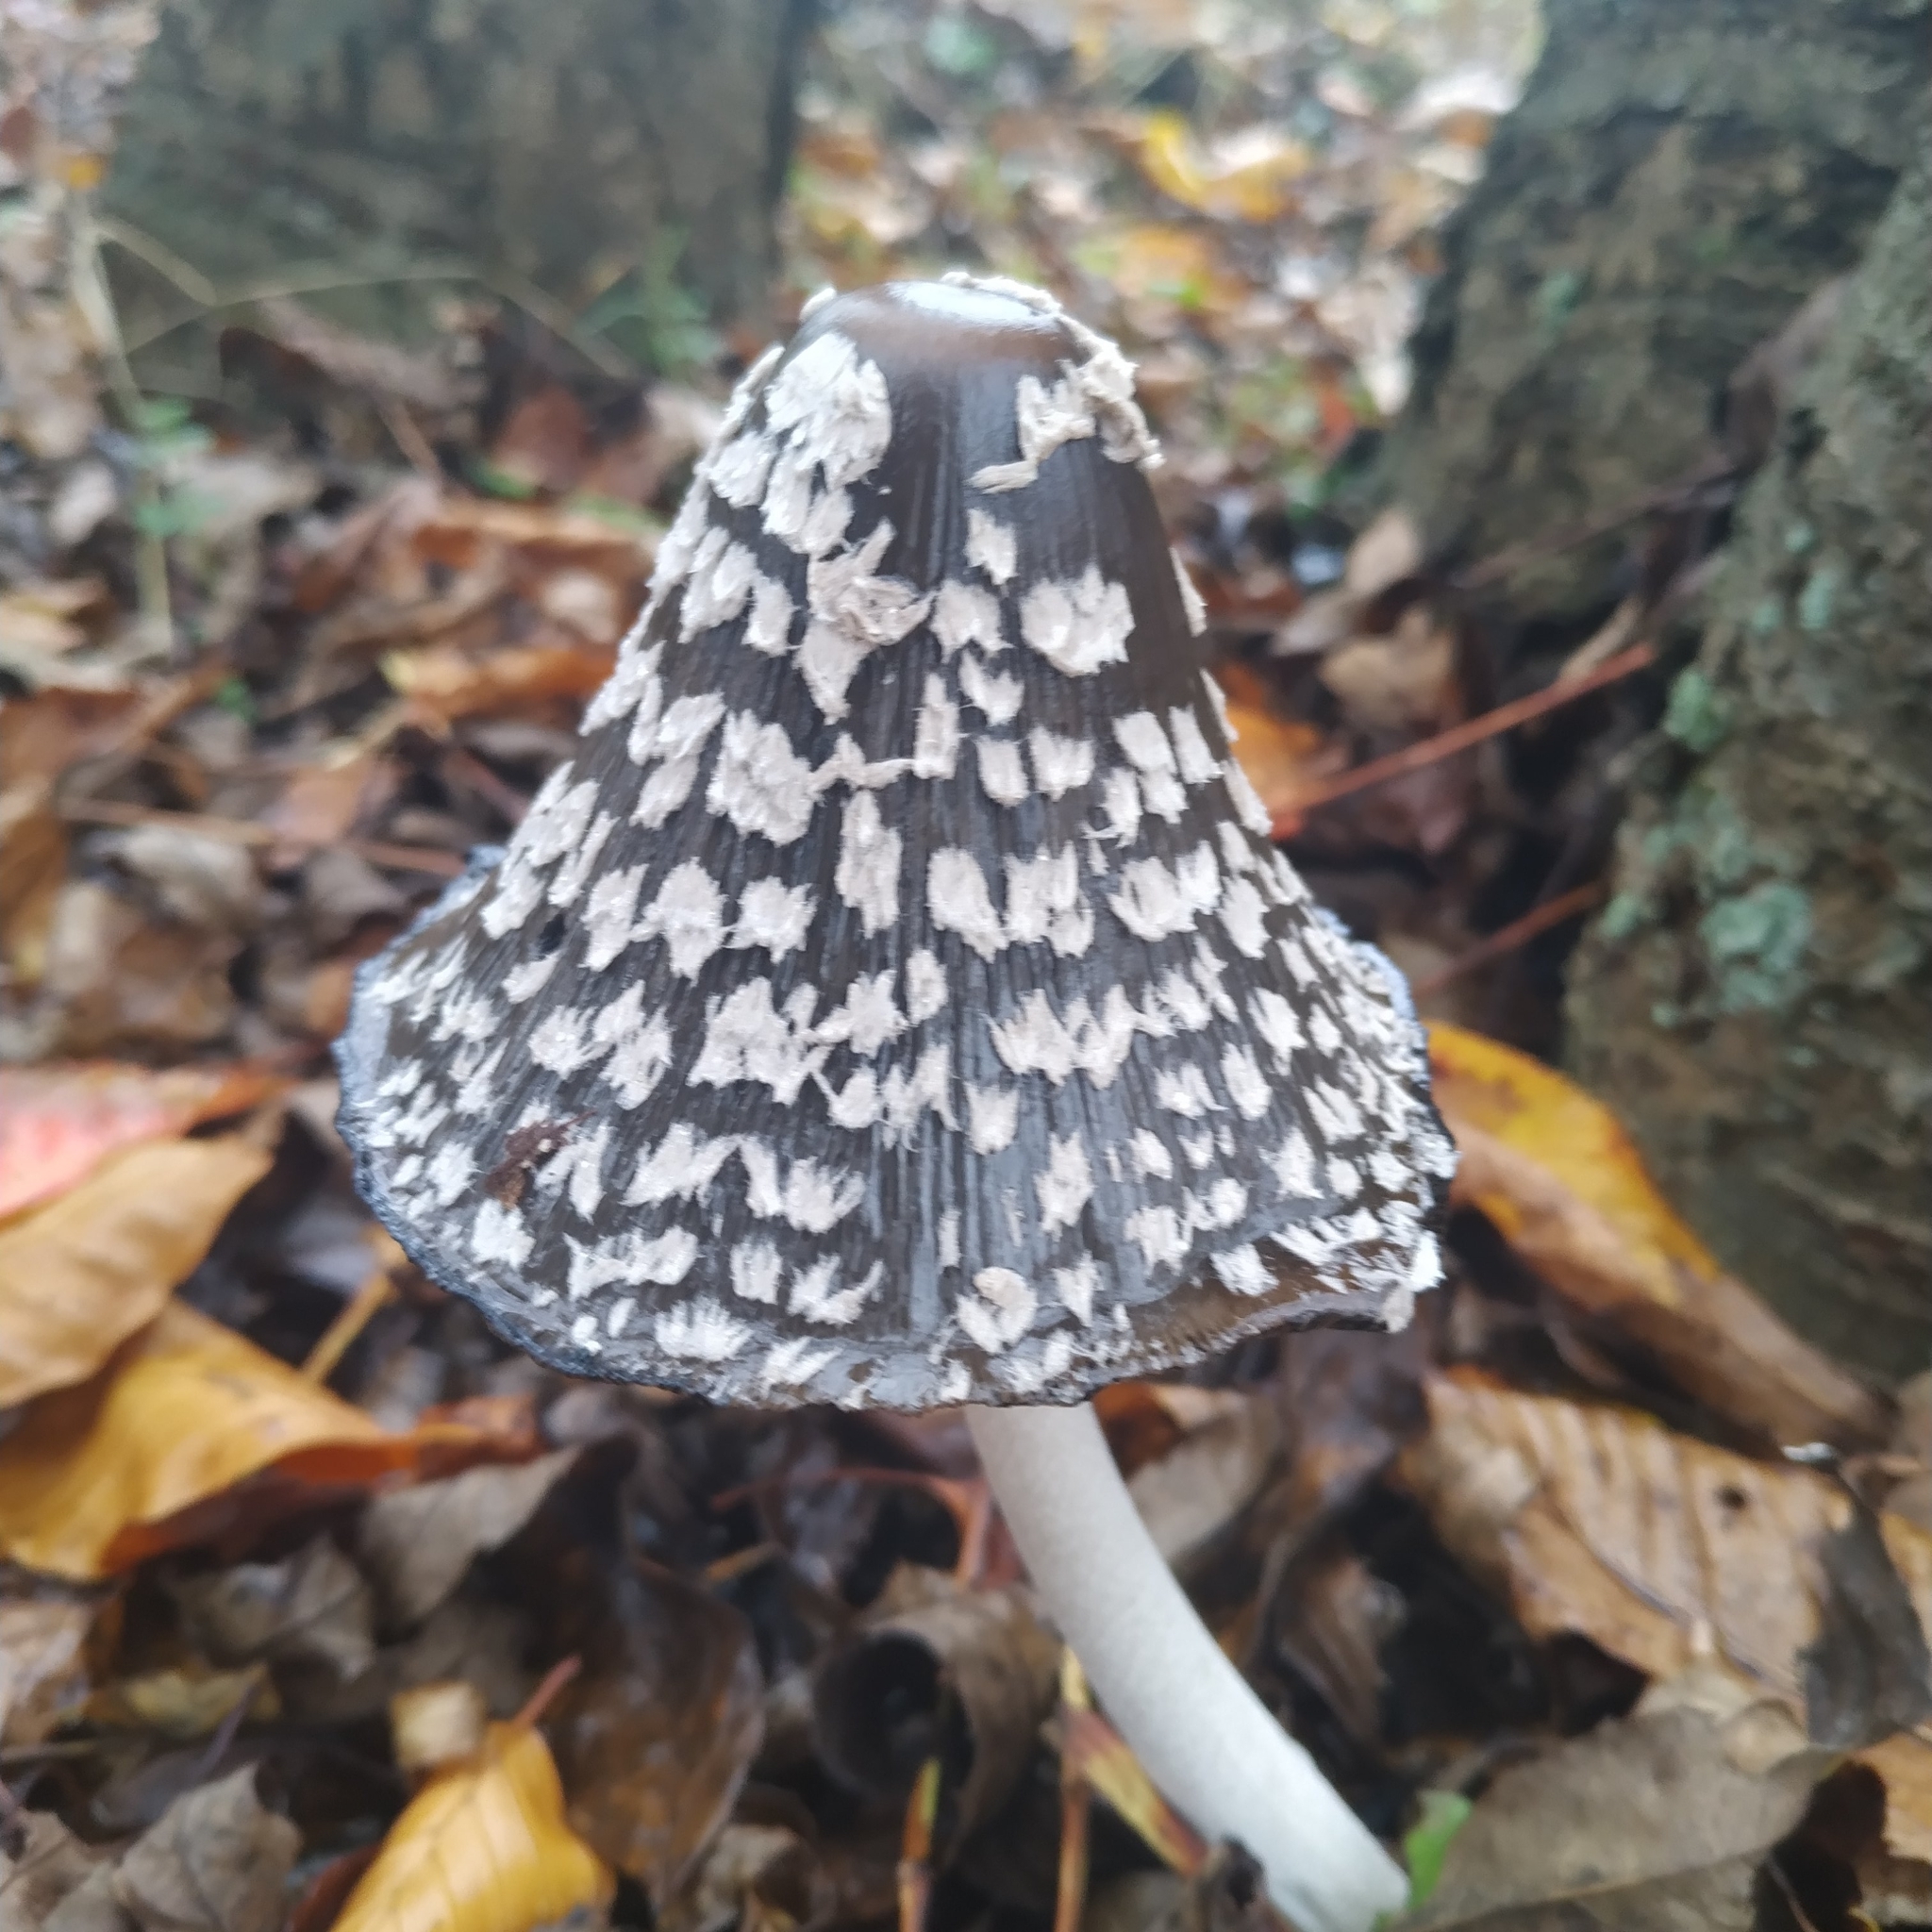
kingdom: Fungi
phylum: Basidiomycota
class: Agaricomycetes
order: Agaricales
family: Psathyrellaceae
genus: Coprinopsis
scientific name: Coprinopsis picacea
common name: Magpie inkcap
